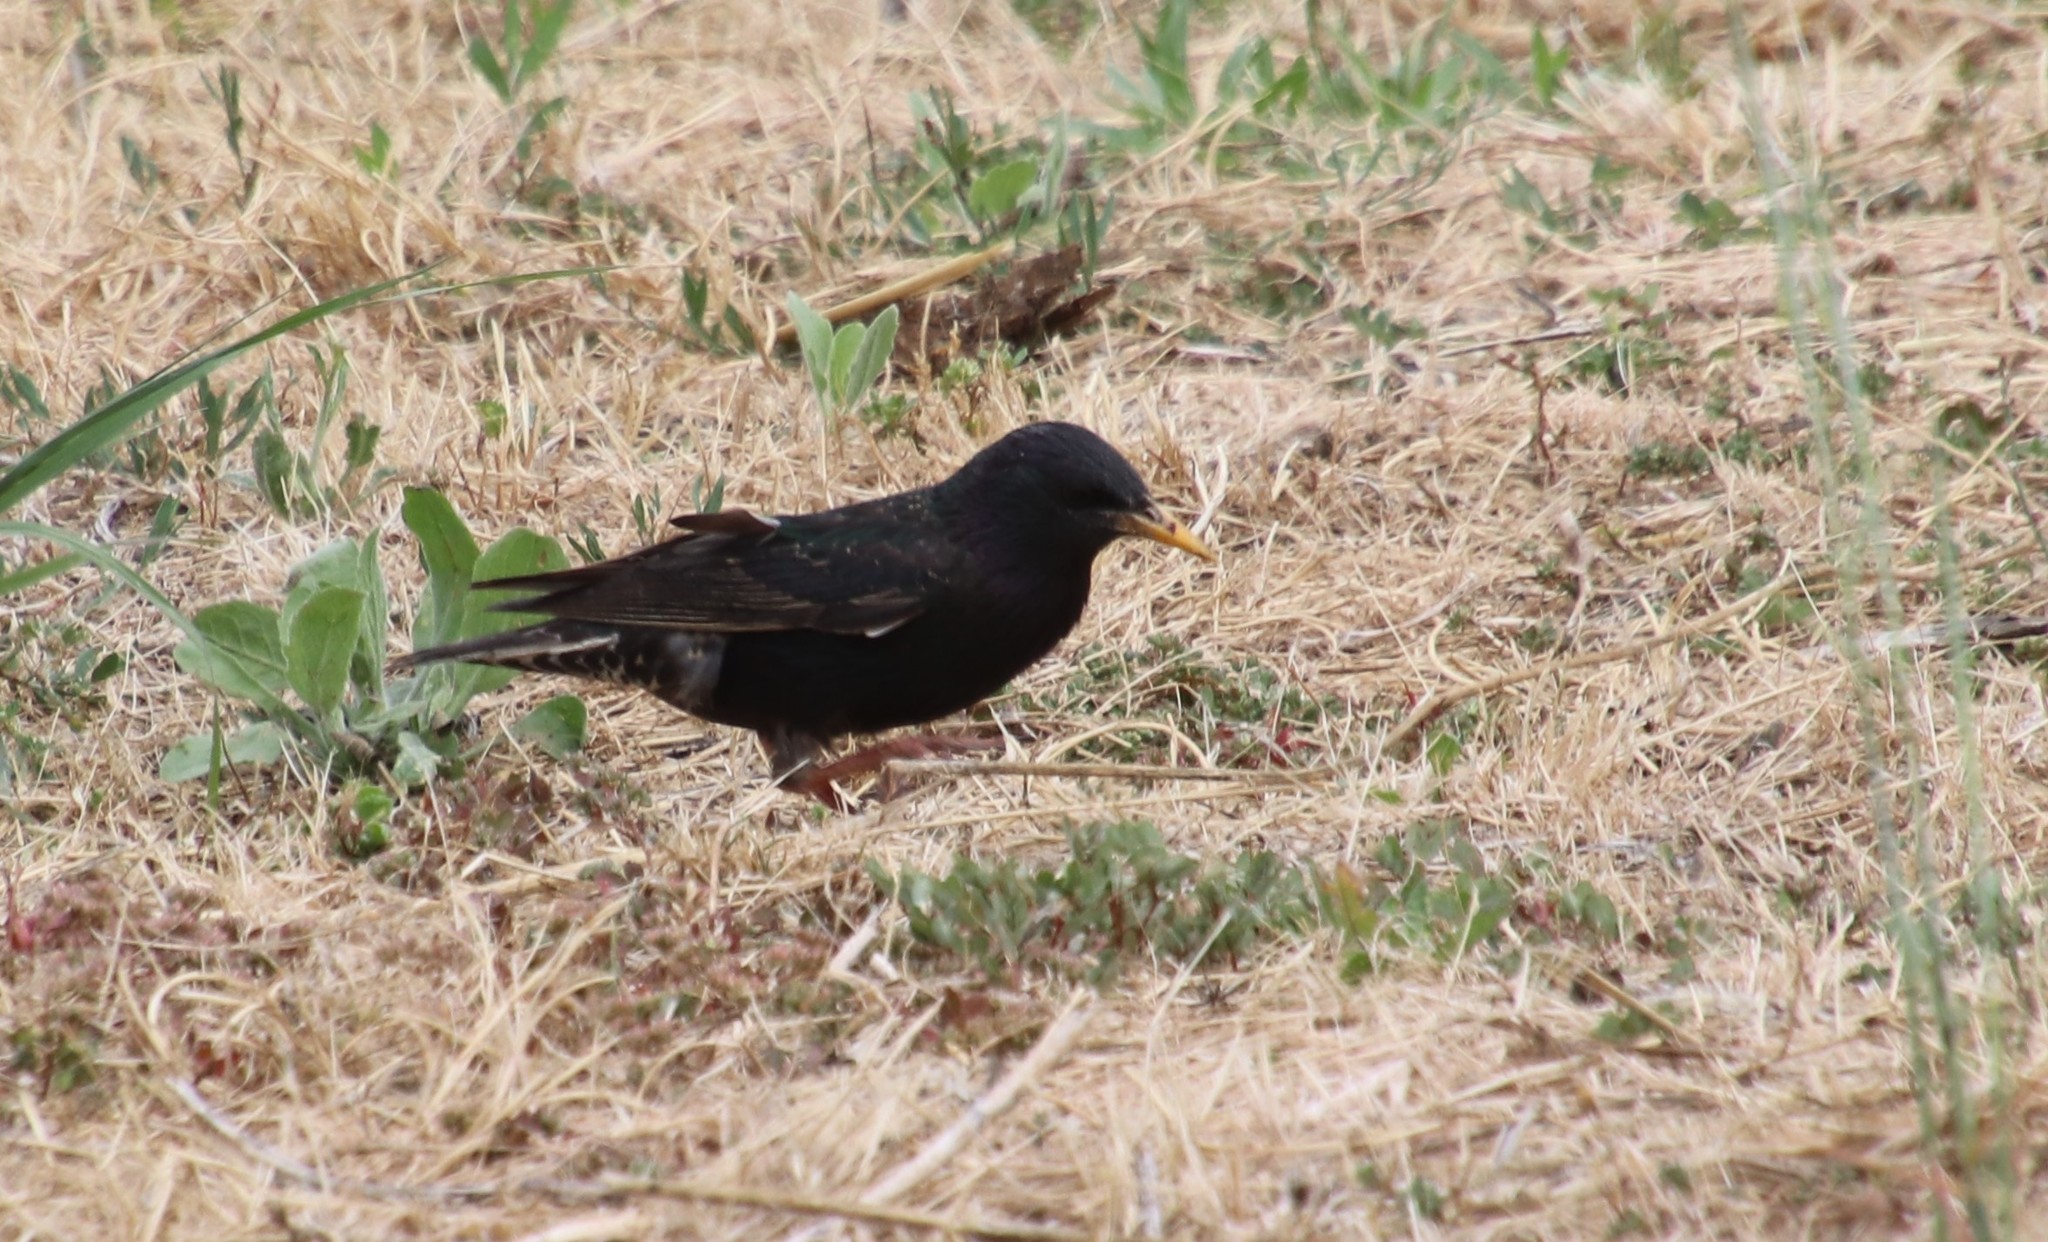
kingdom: Animalia
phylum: Chordata
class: Aves
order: Passeriformes
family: Sturnidae
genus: Sturnus
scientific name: Sturnus vulgaris
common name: Common starling
